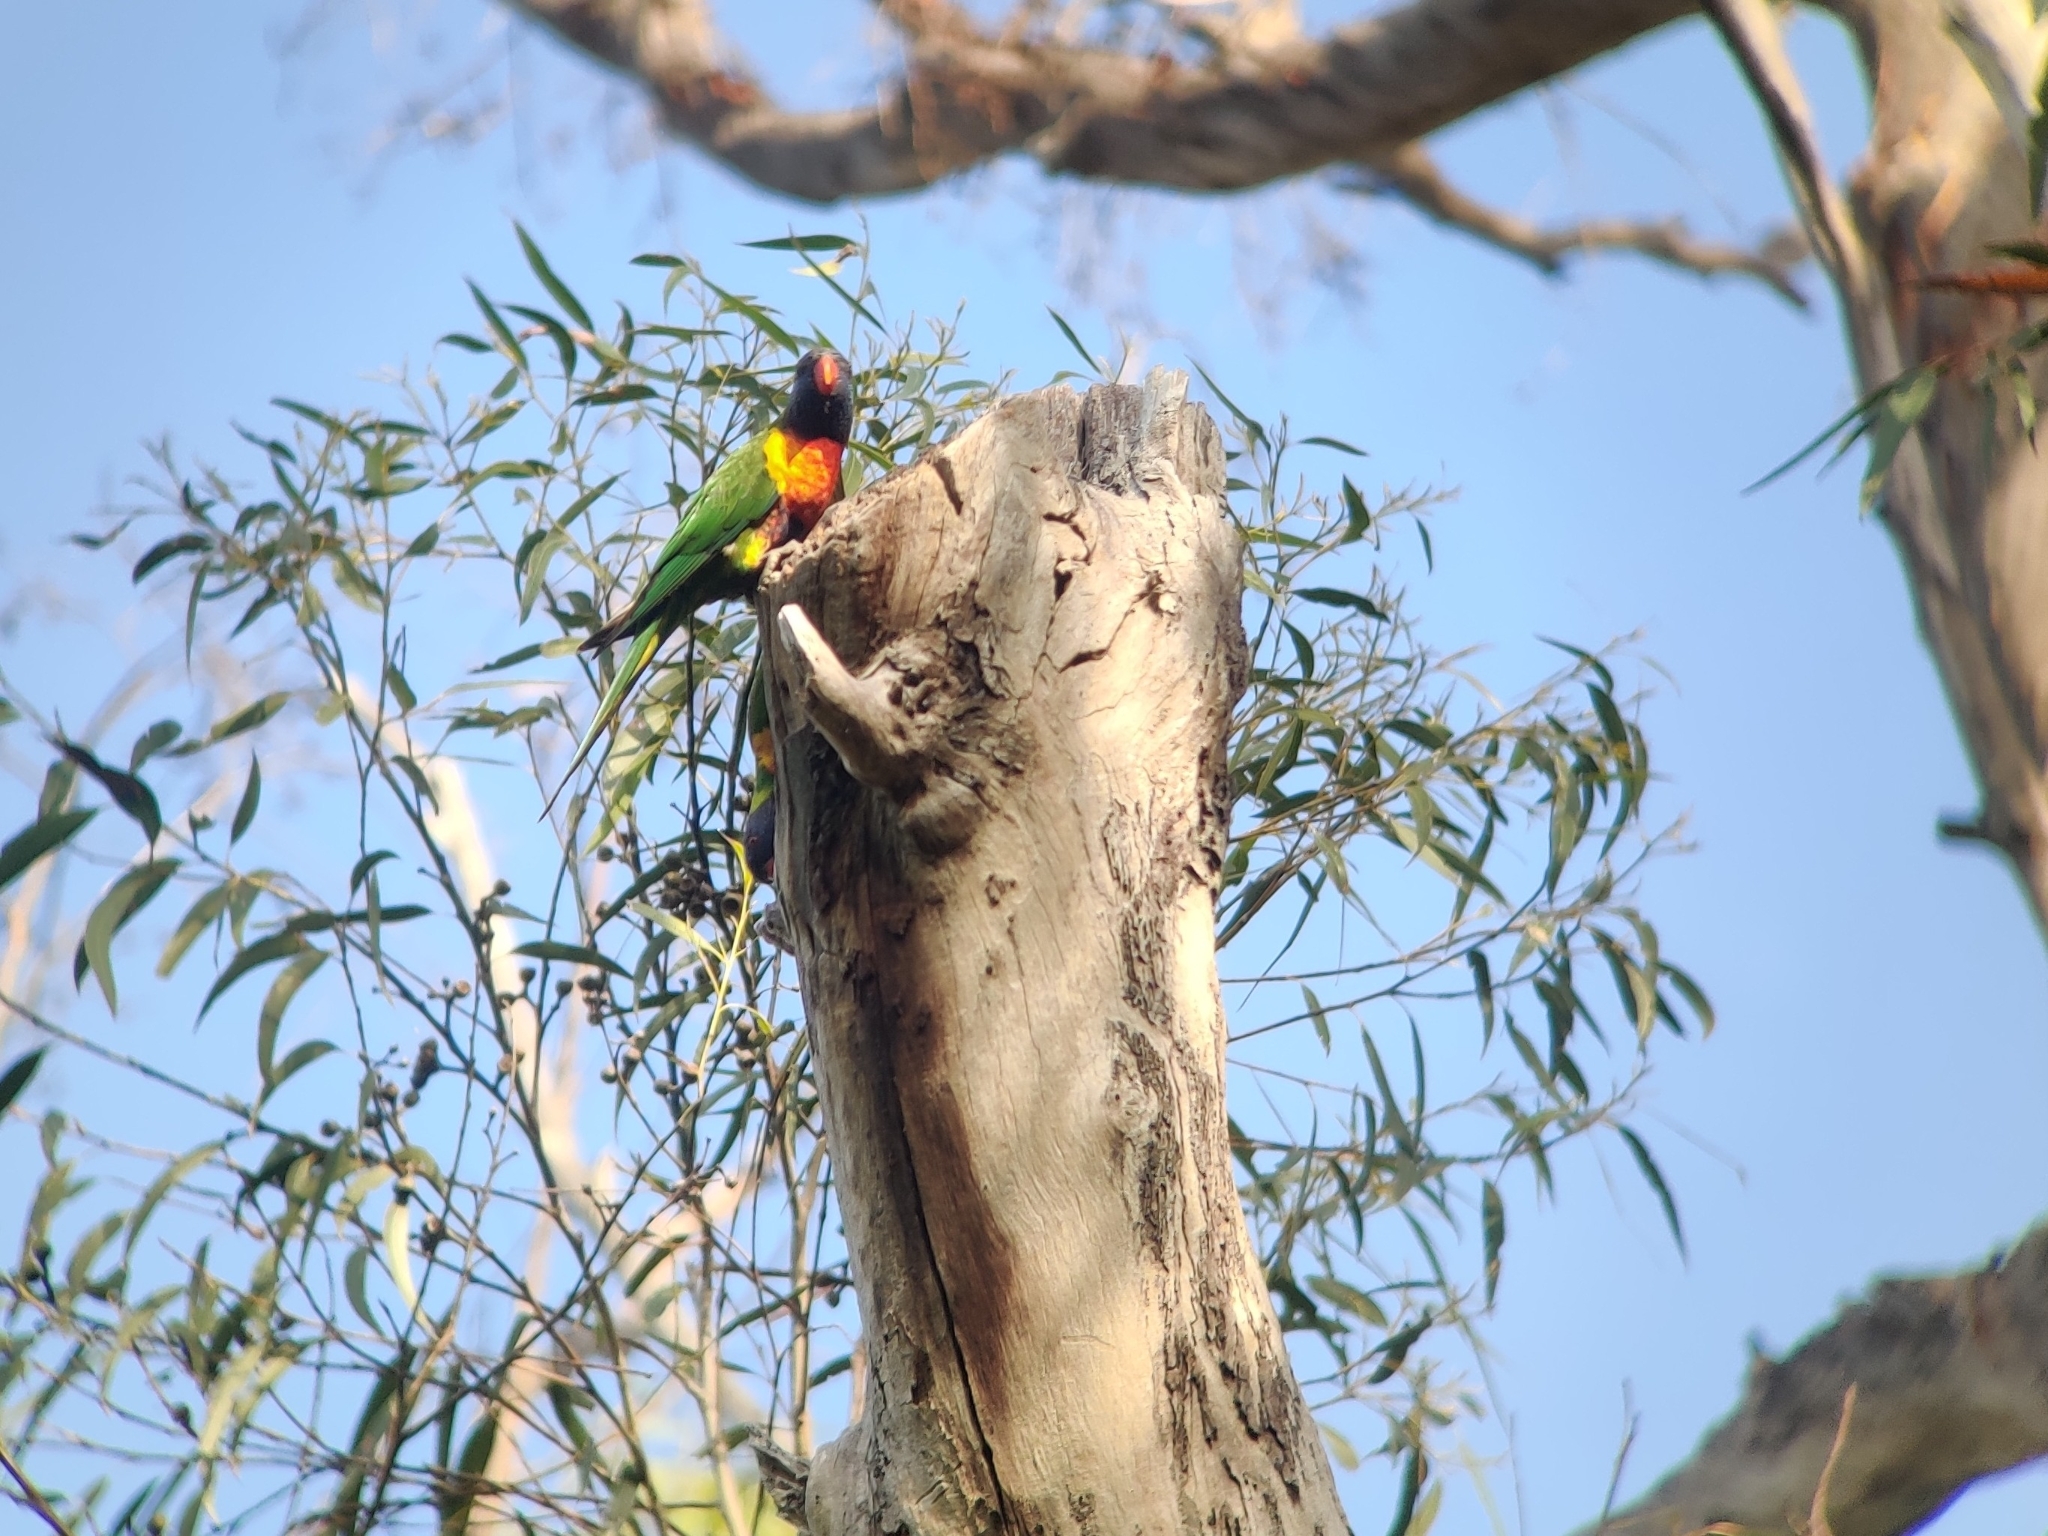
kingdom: Animalia
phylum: Chordata
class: Aves
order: Psittaciformes
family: Psittacidae
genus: Trichoglossus
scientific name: Trichoglossus haematodus
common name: Coconut lorikeet
